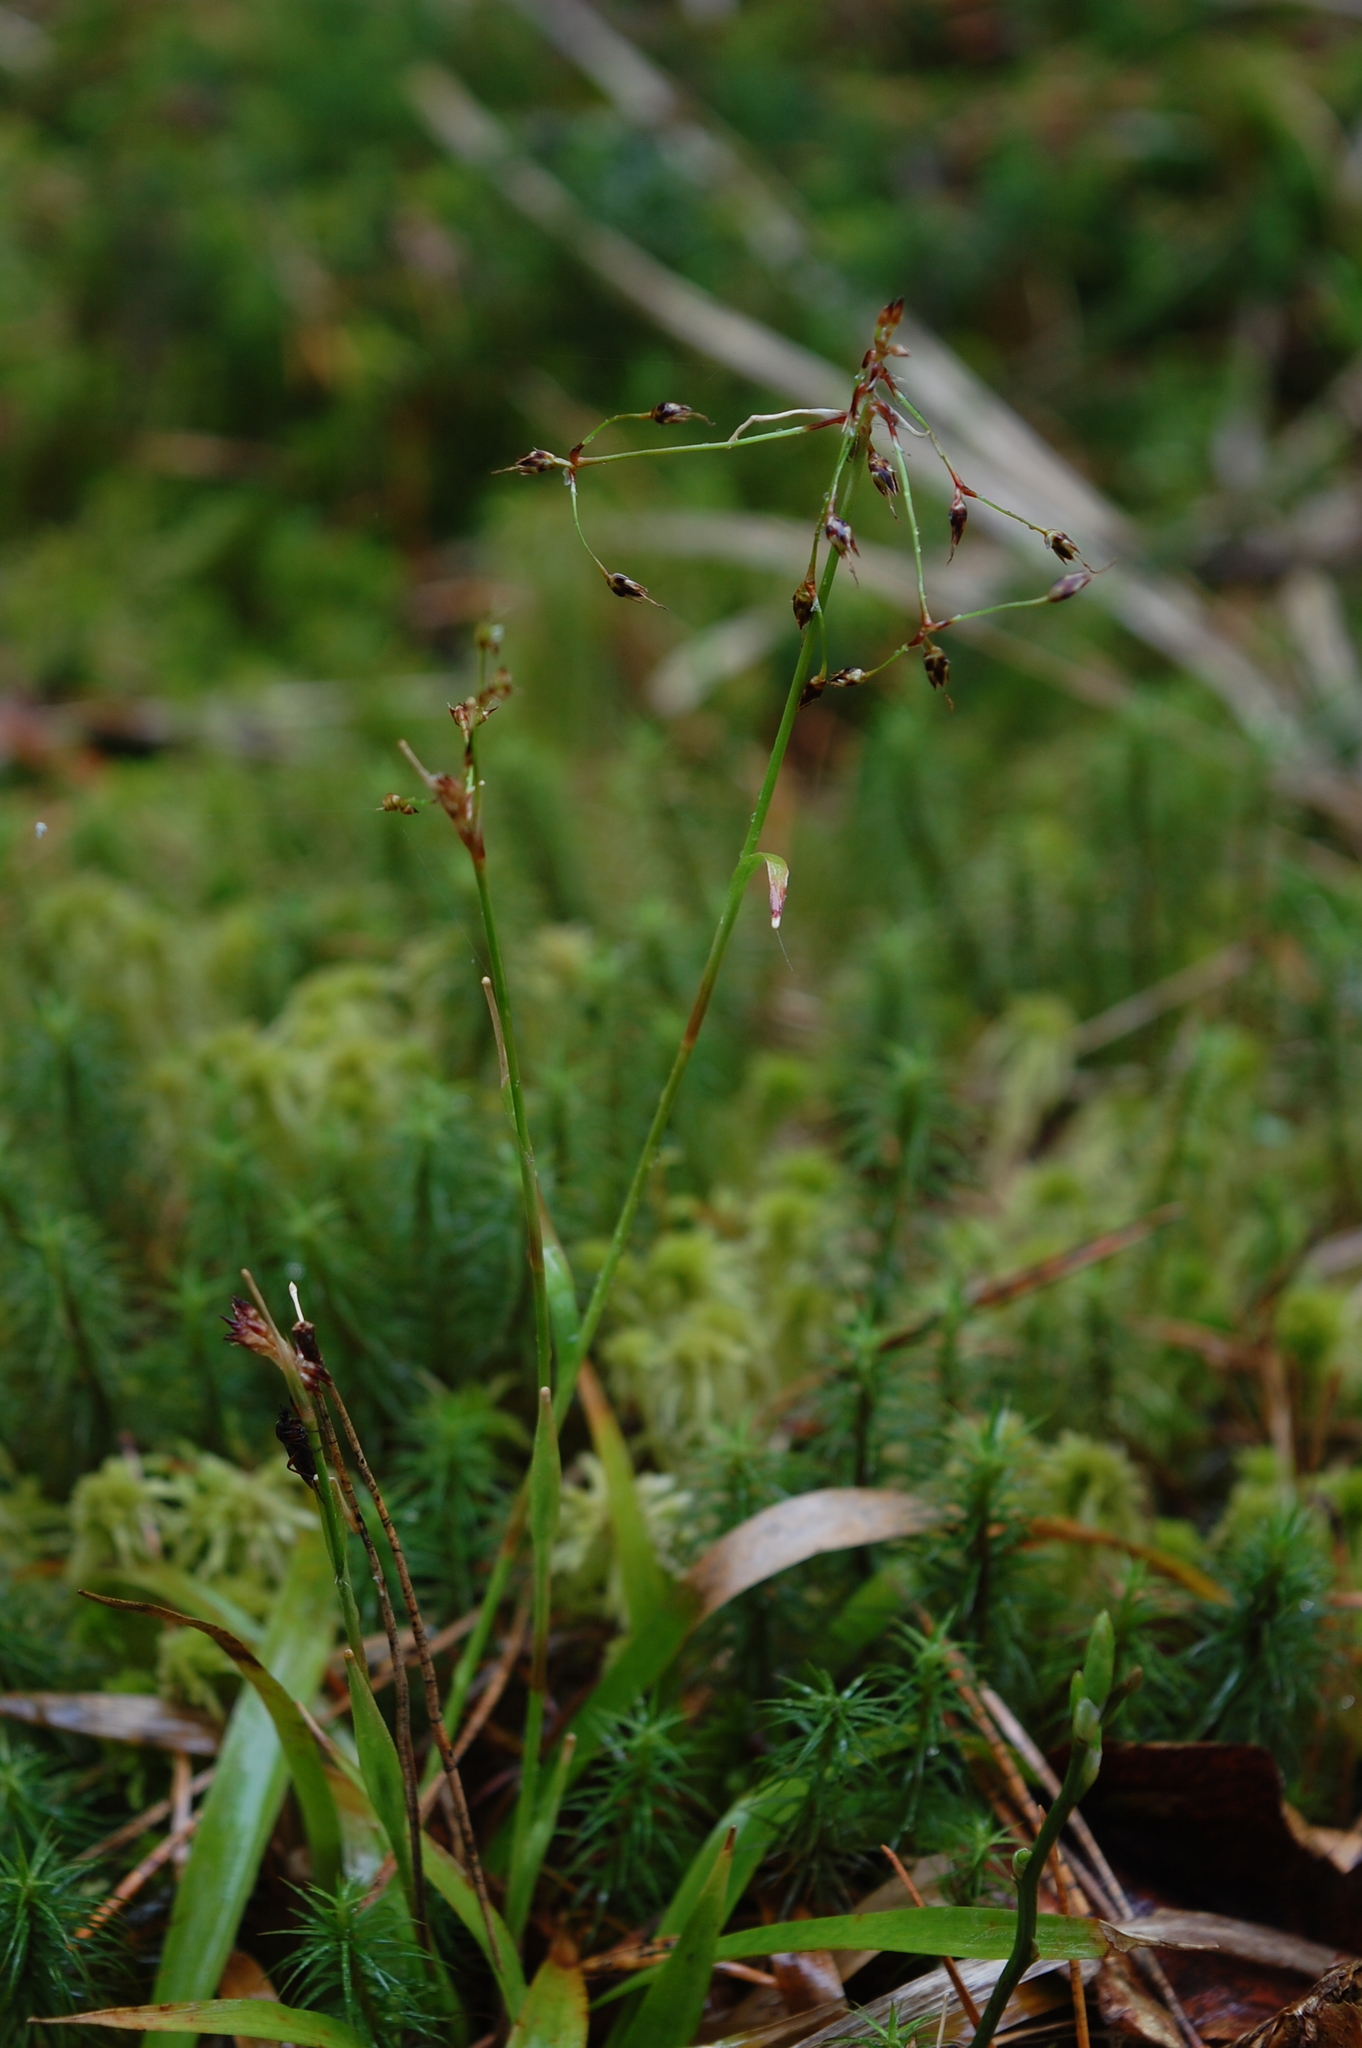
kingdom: Plantae
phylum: Tracheophyta
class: Liliopsida
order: Poales
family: Juncaceae
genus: Luzula
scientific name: Luzula pilosa
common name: Hairy wood-rush
